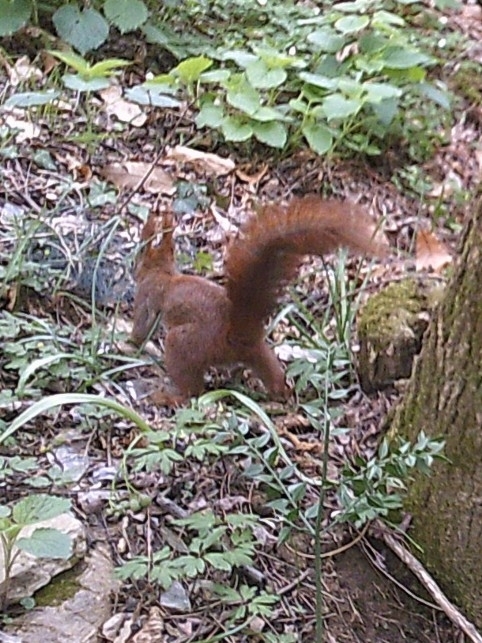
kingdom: Animalia
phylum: Chordata
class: Mammalia
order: Rodentia
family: Sciuridae
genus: Sciurus
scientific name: Sciurus vulgaris
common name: Eurasian red squirrel
